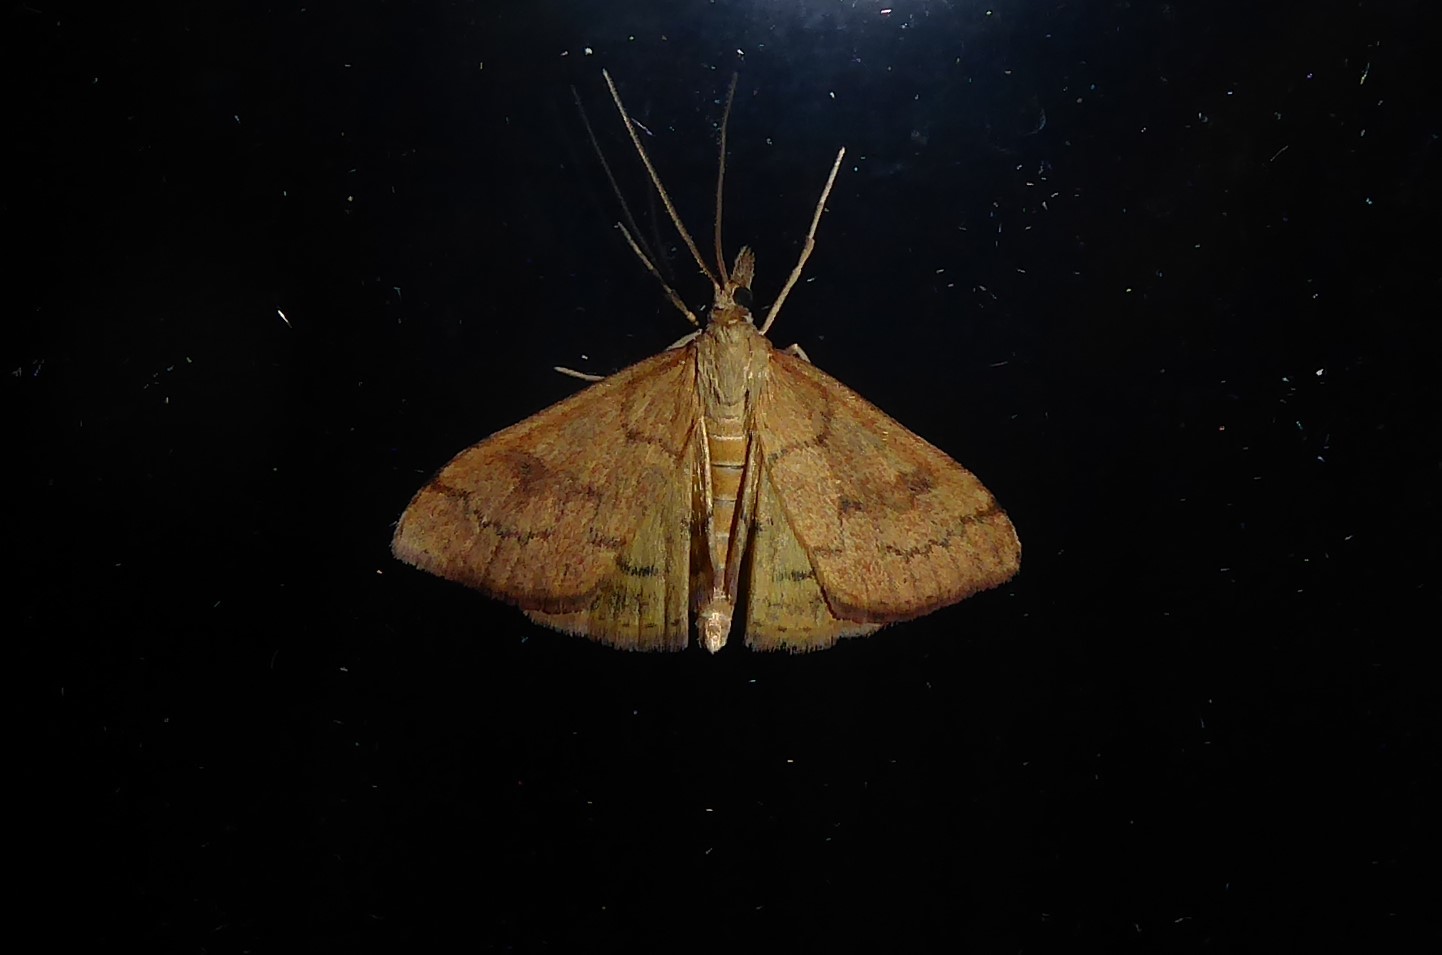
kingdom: Animalia
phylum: Arthropoda
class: Insecta
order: Lepidoptera
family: Crambidae
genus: Udea
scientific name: Udea Mnesictena flavidalis
